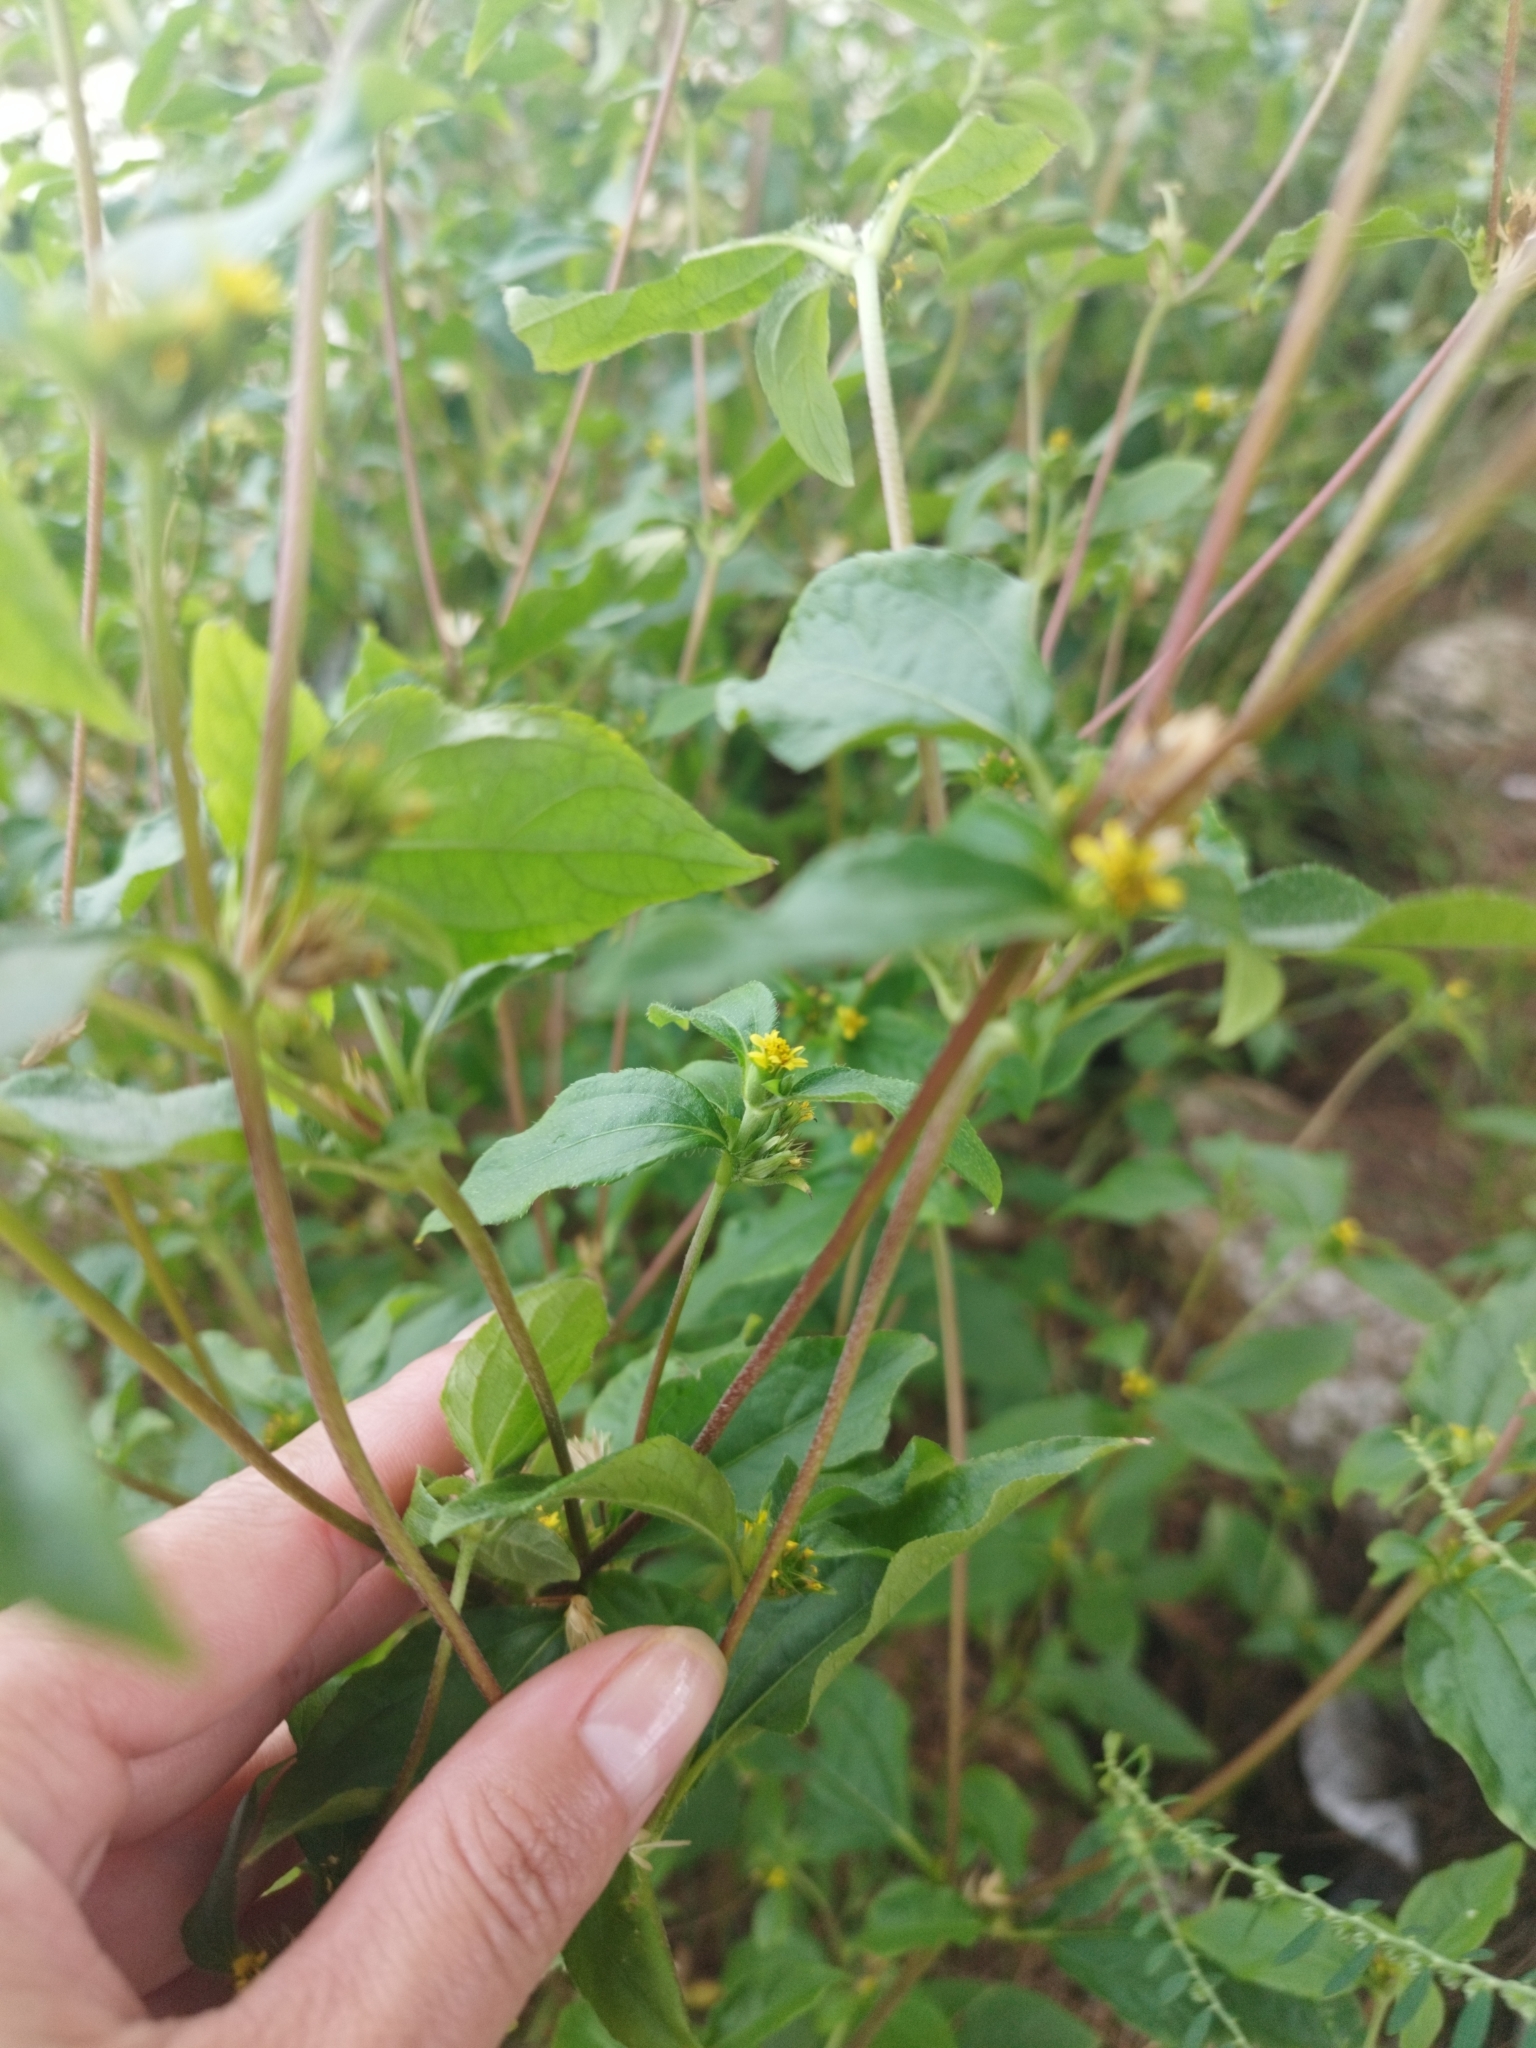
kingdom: Plantae
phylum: Tracheophyta
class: Magnoliopsida
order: Asterales
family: Asteraceae
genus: Synedrella
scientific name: Synedrella nodiflora
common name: Nodeweed
